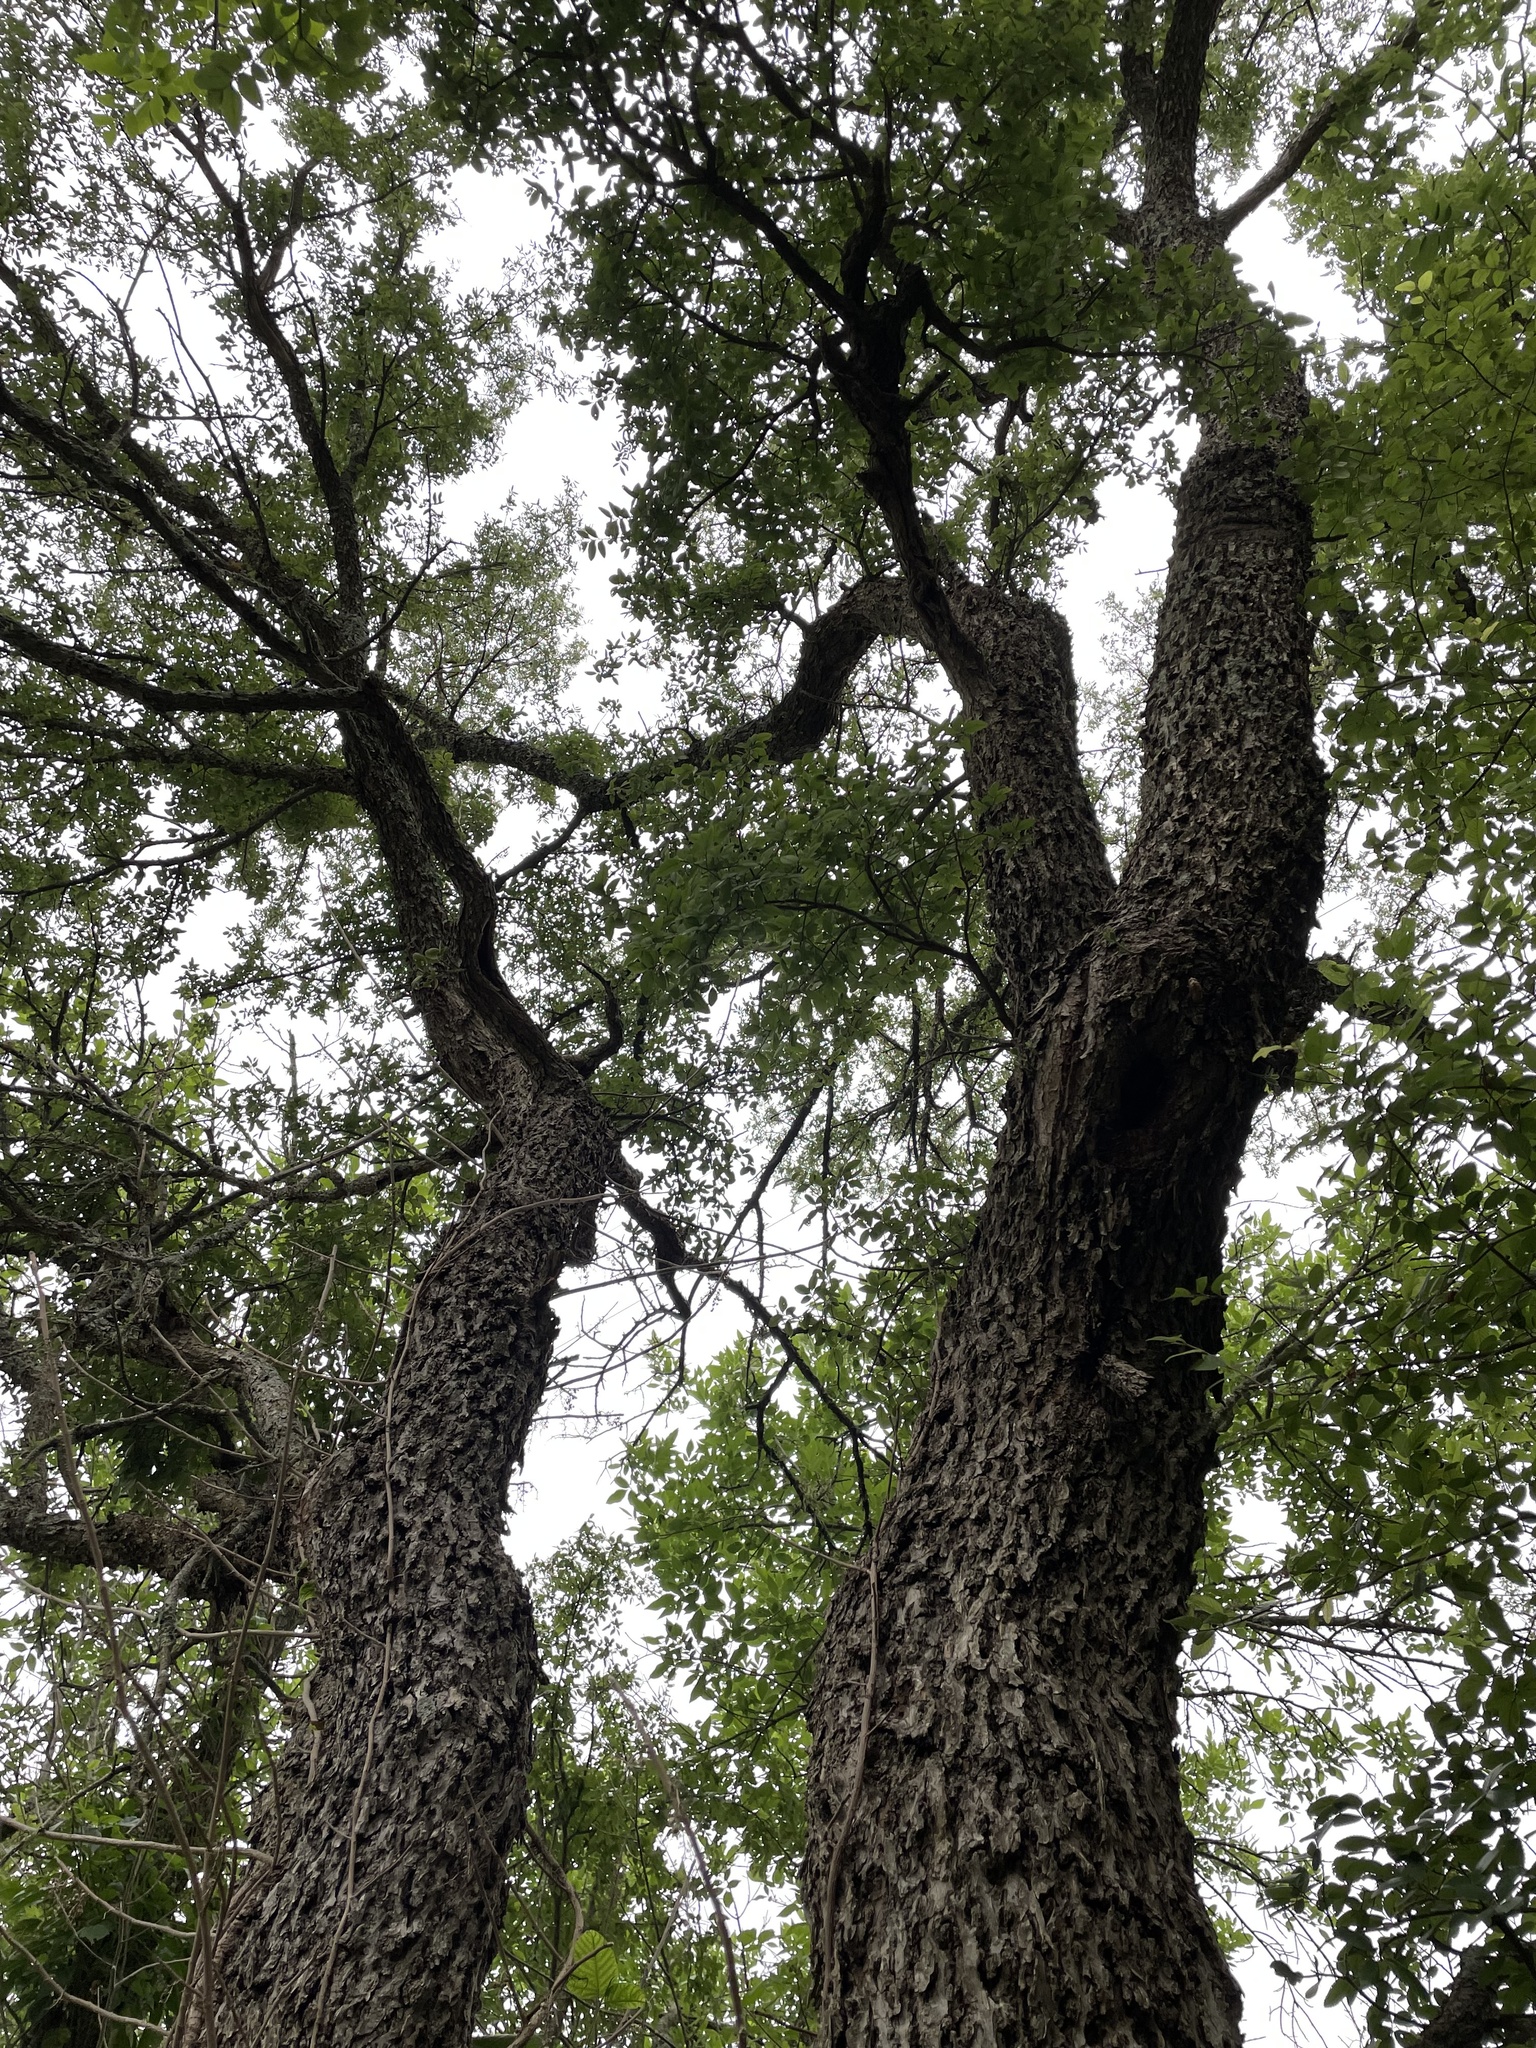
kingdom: Plantae
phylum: Tracheophyta
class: Magnoliopsida
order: Rosales
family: Ulmaceae
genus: Ulmus
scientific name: Ulmus crassifolia
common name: Basket elm
